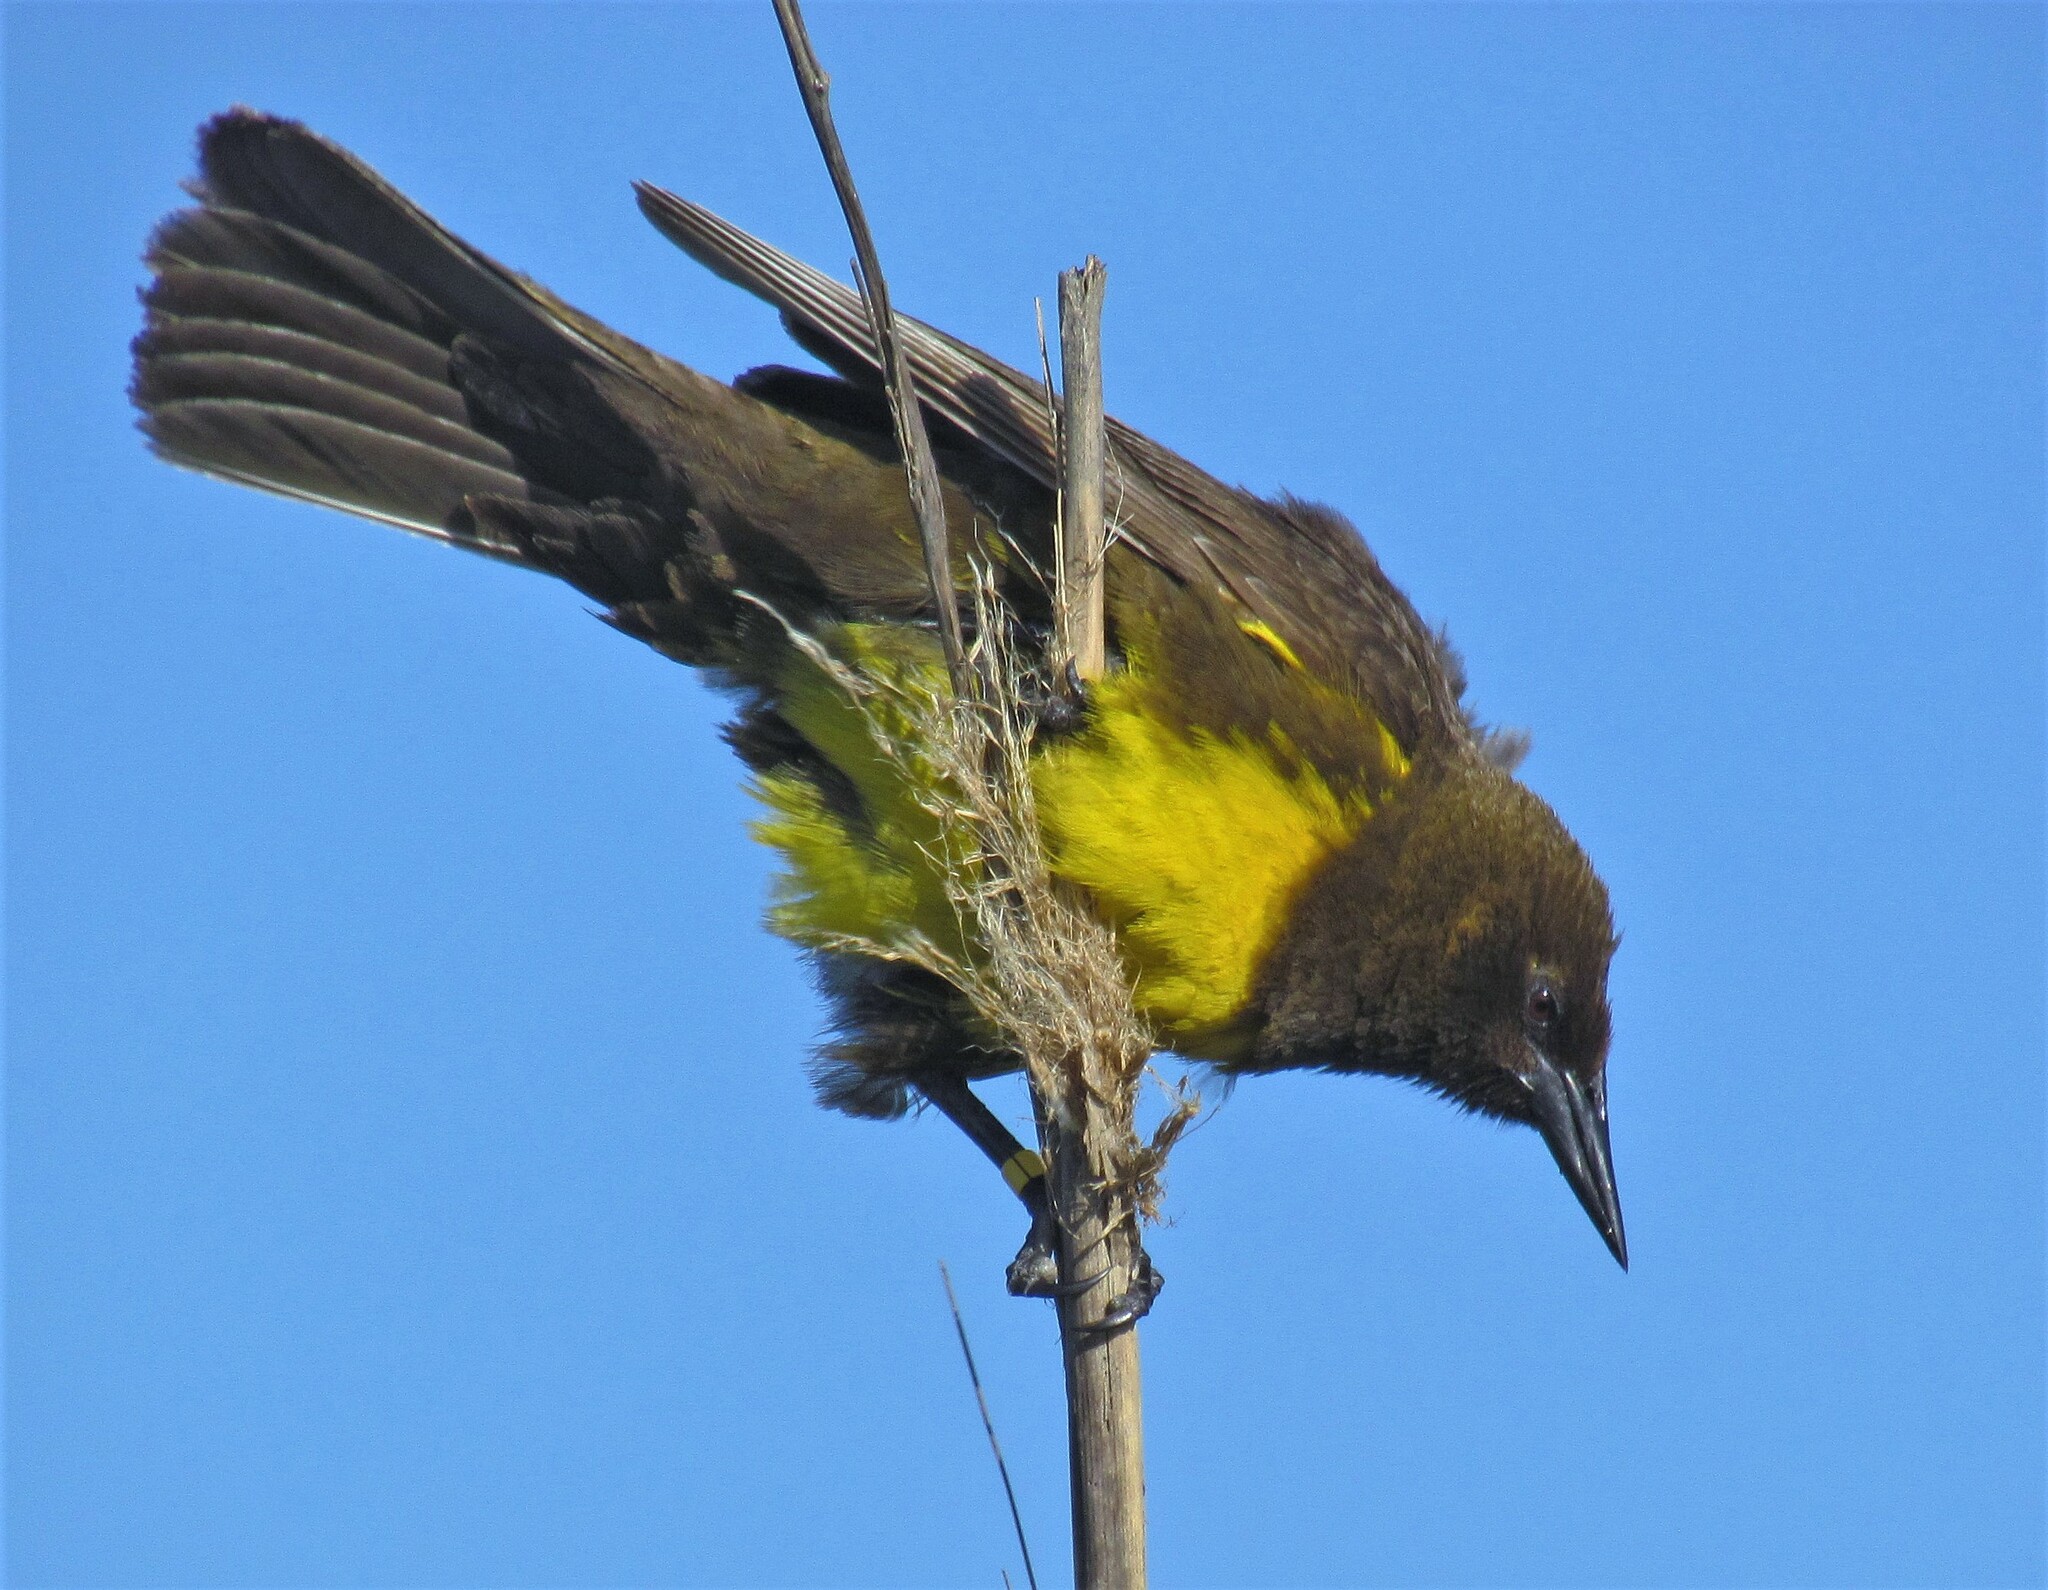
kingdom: Animalia
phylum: Chordata
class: Aves
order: Passeriformes
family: Icteridae
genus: Pseudoleistes
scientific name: Pseudoleistes virescens
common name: Brown-and-yellow marshbird
